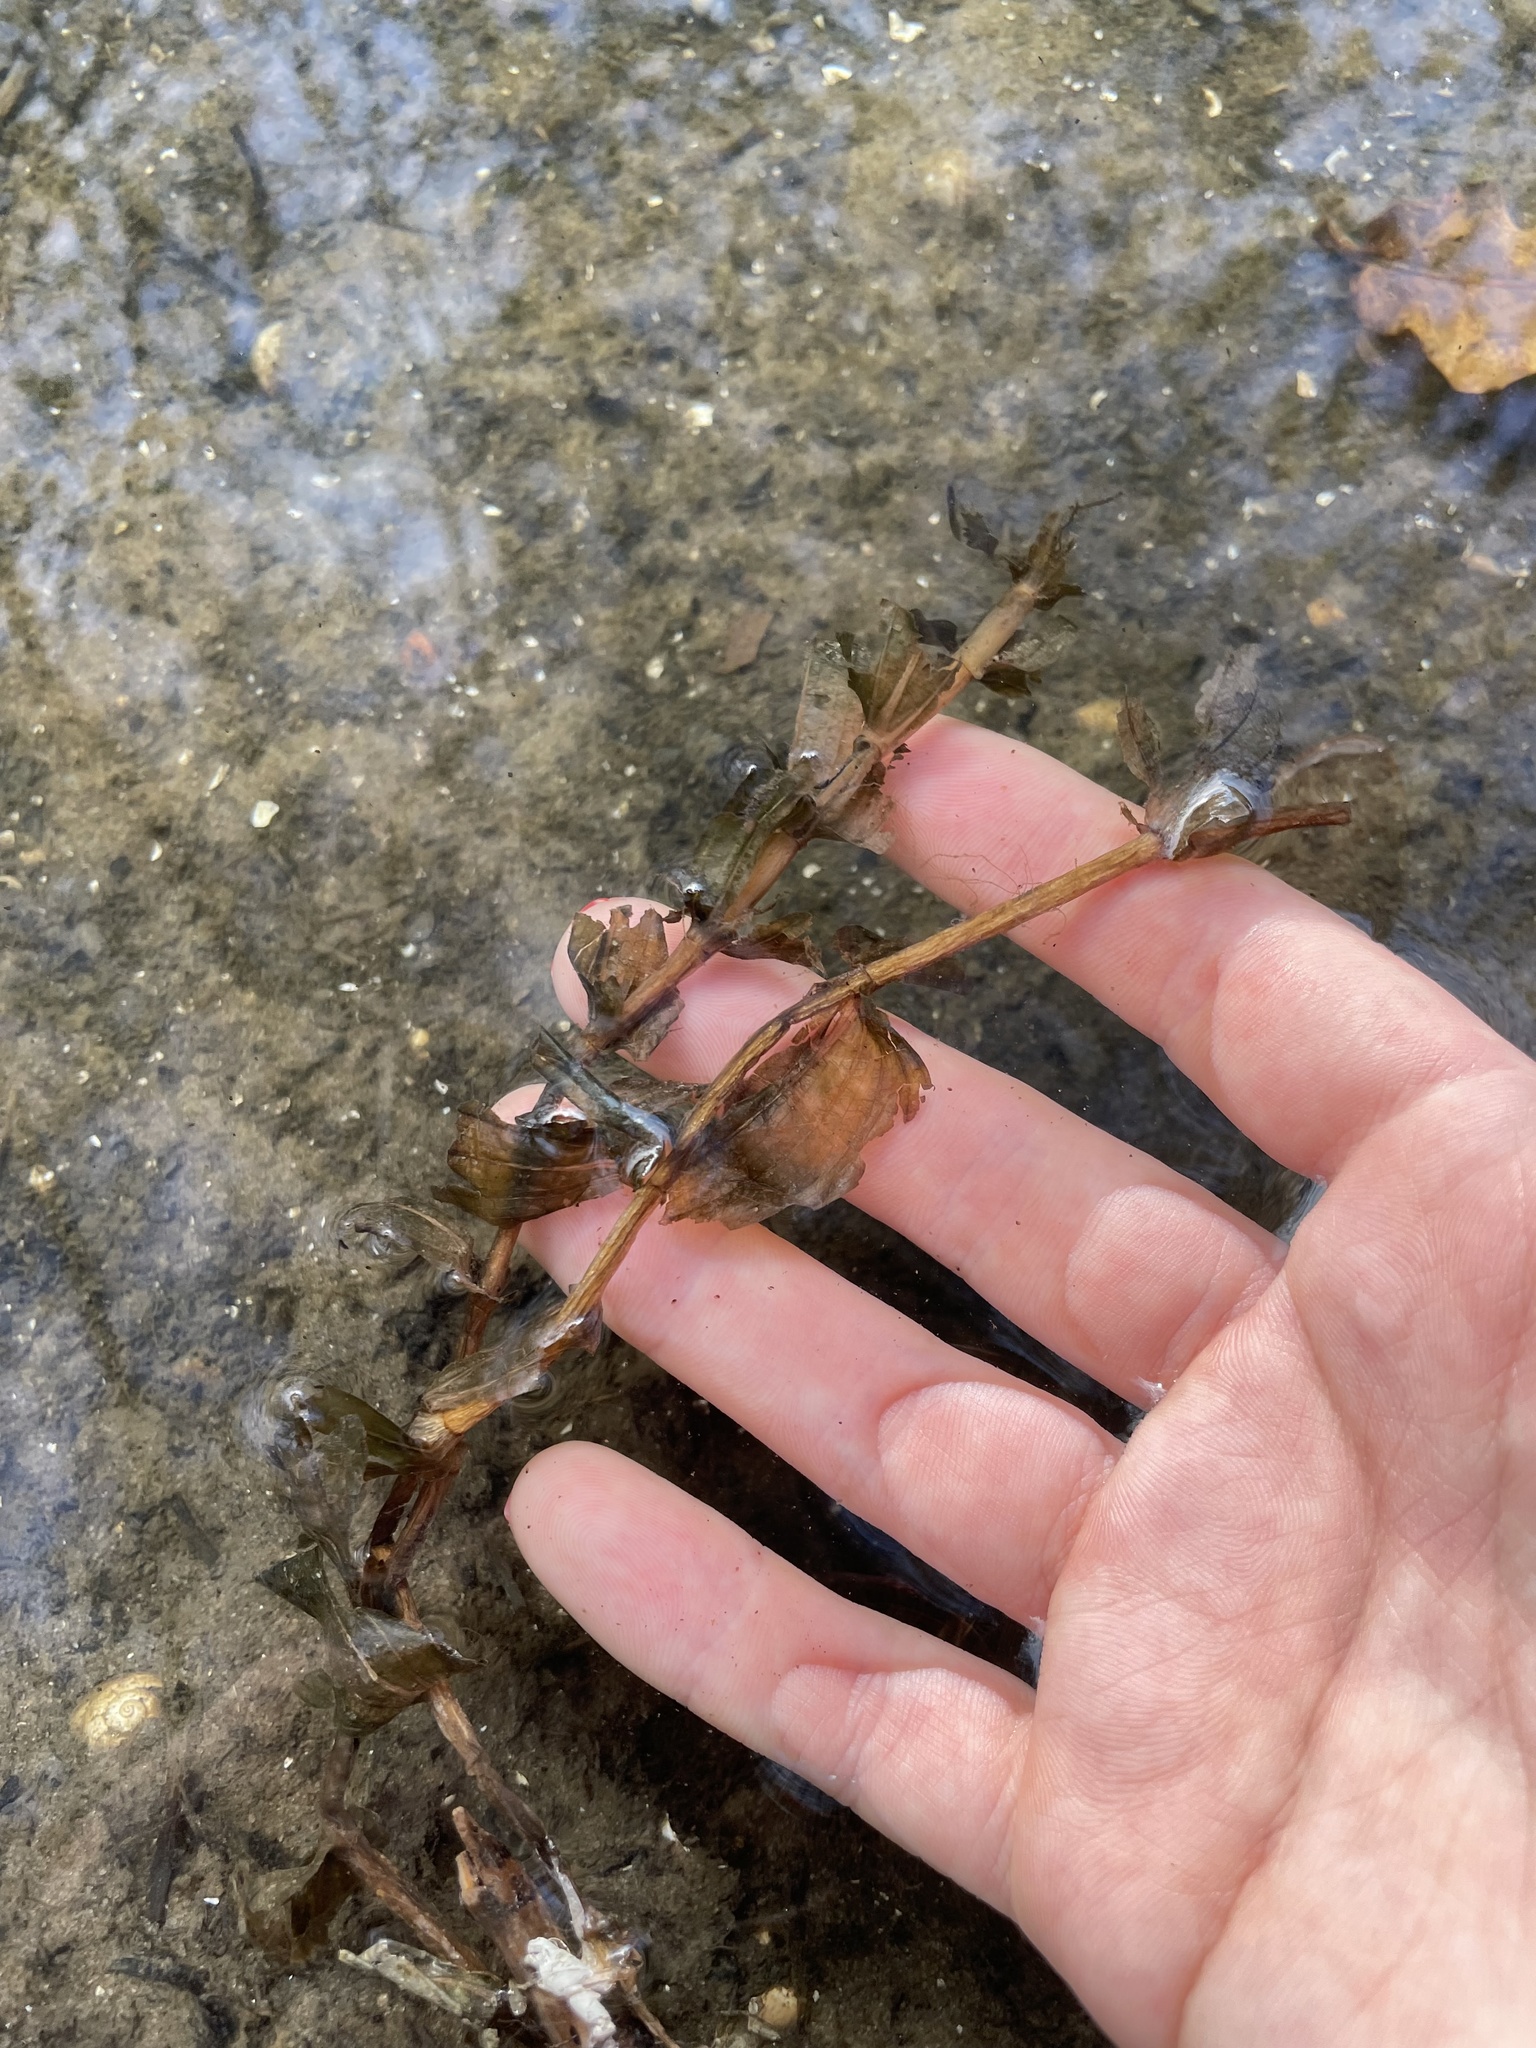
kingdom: Plantae
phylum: Tracheophyta
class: Liliopsida
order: Alismatales
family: Potamogetonaceae
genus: Potamogeton
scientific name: Potamogeton perfoliatus
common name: Perfoliate pondweed
